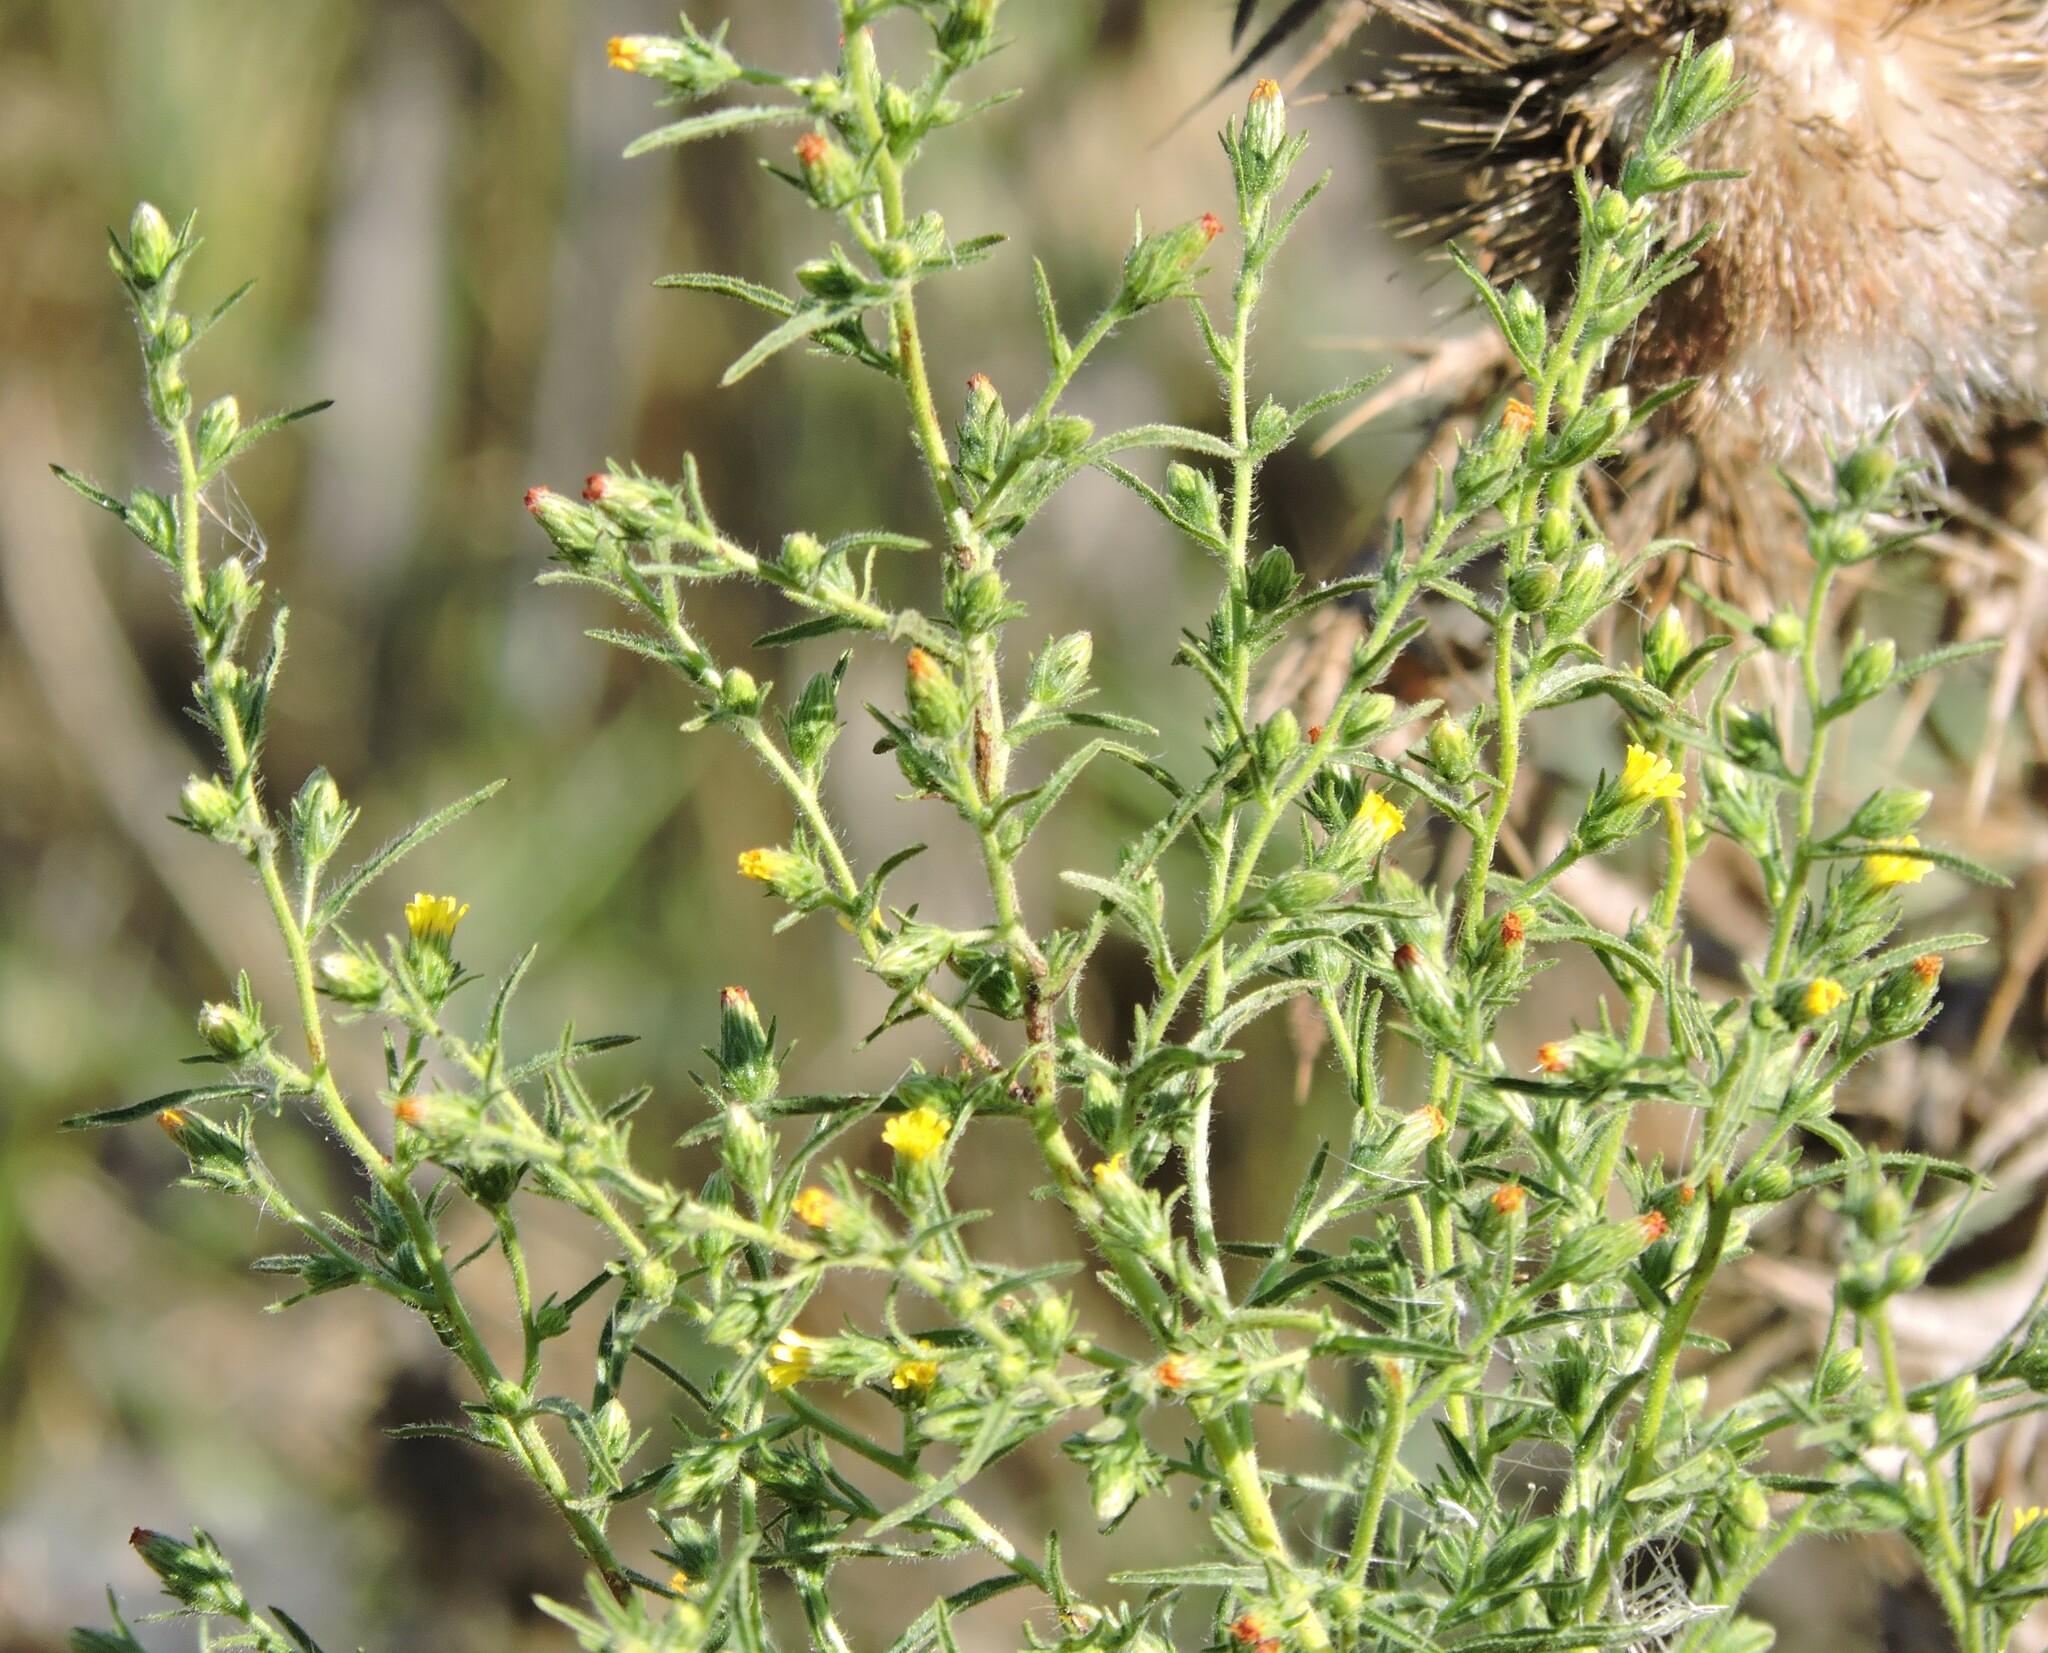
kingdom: Plantae
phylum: Tracheophyta
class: Magnoliopsida
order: Asterales
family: Asteraceae
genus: Dittrichia
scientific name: Dittrichia graveolens
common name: Stinking fleabane
